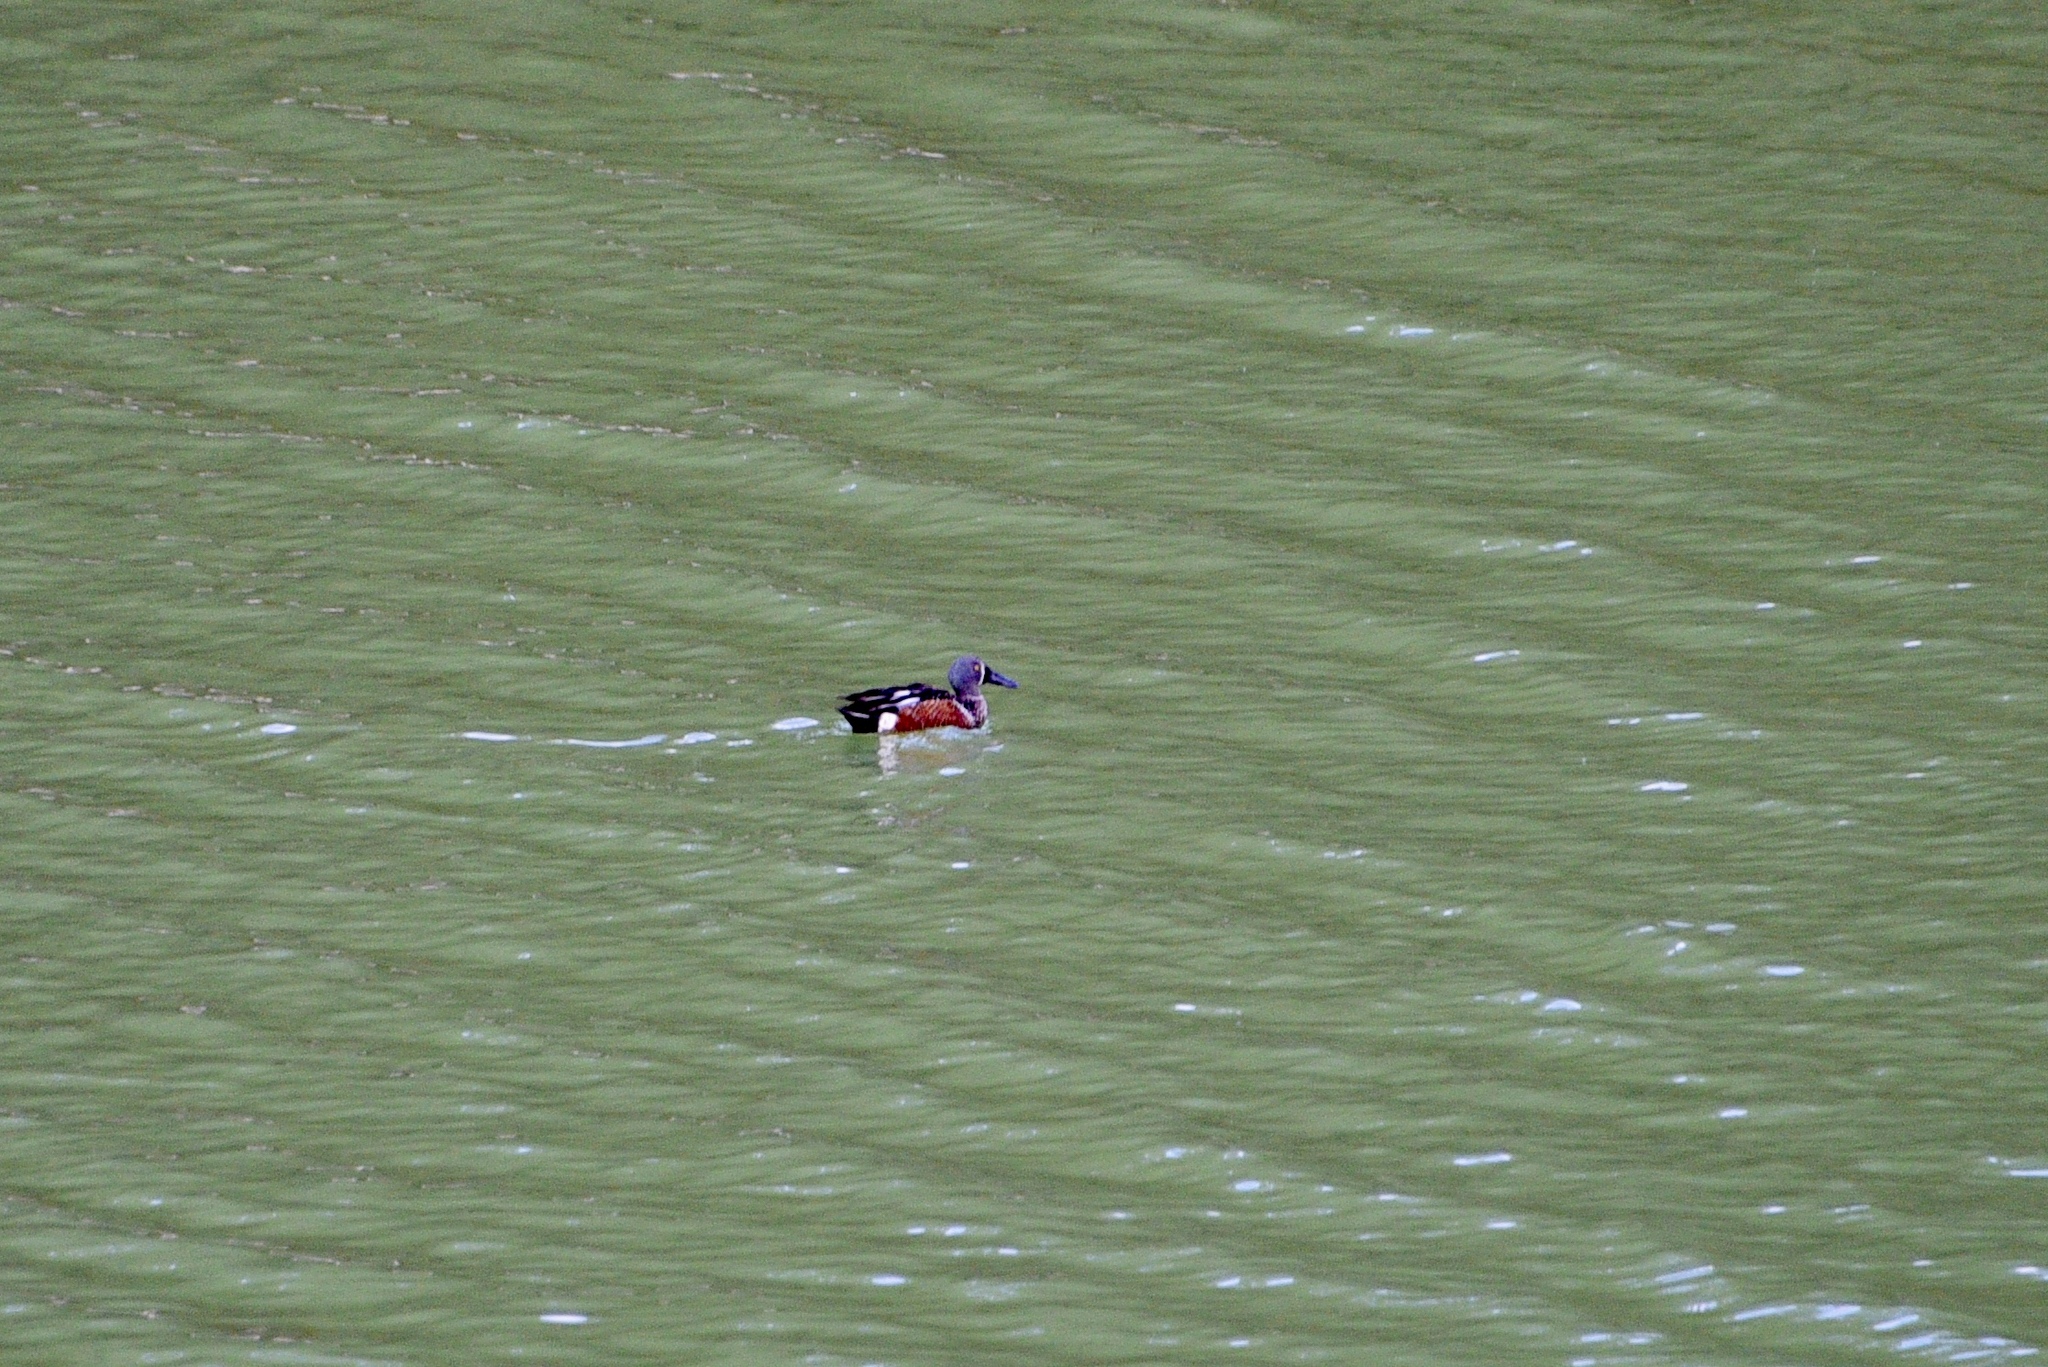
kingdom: Animalia
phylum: Chordata
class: Aves
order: Anseriformes
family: Anatidae
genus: Spatula
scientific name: Spatula rhynchotis
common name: Australian shoveler
